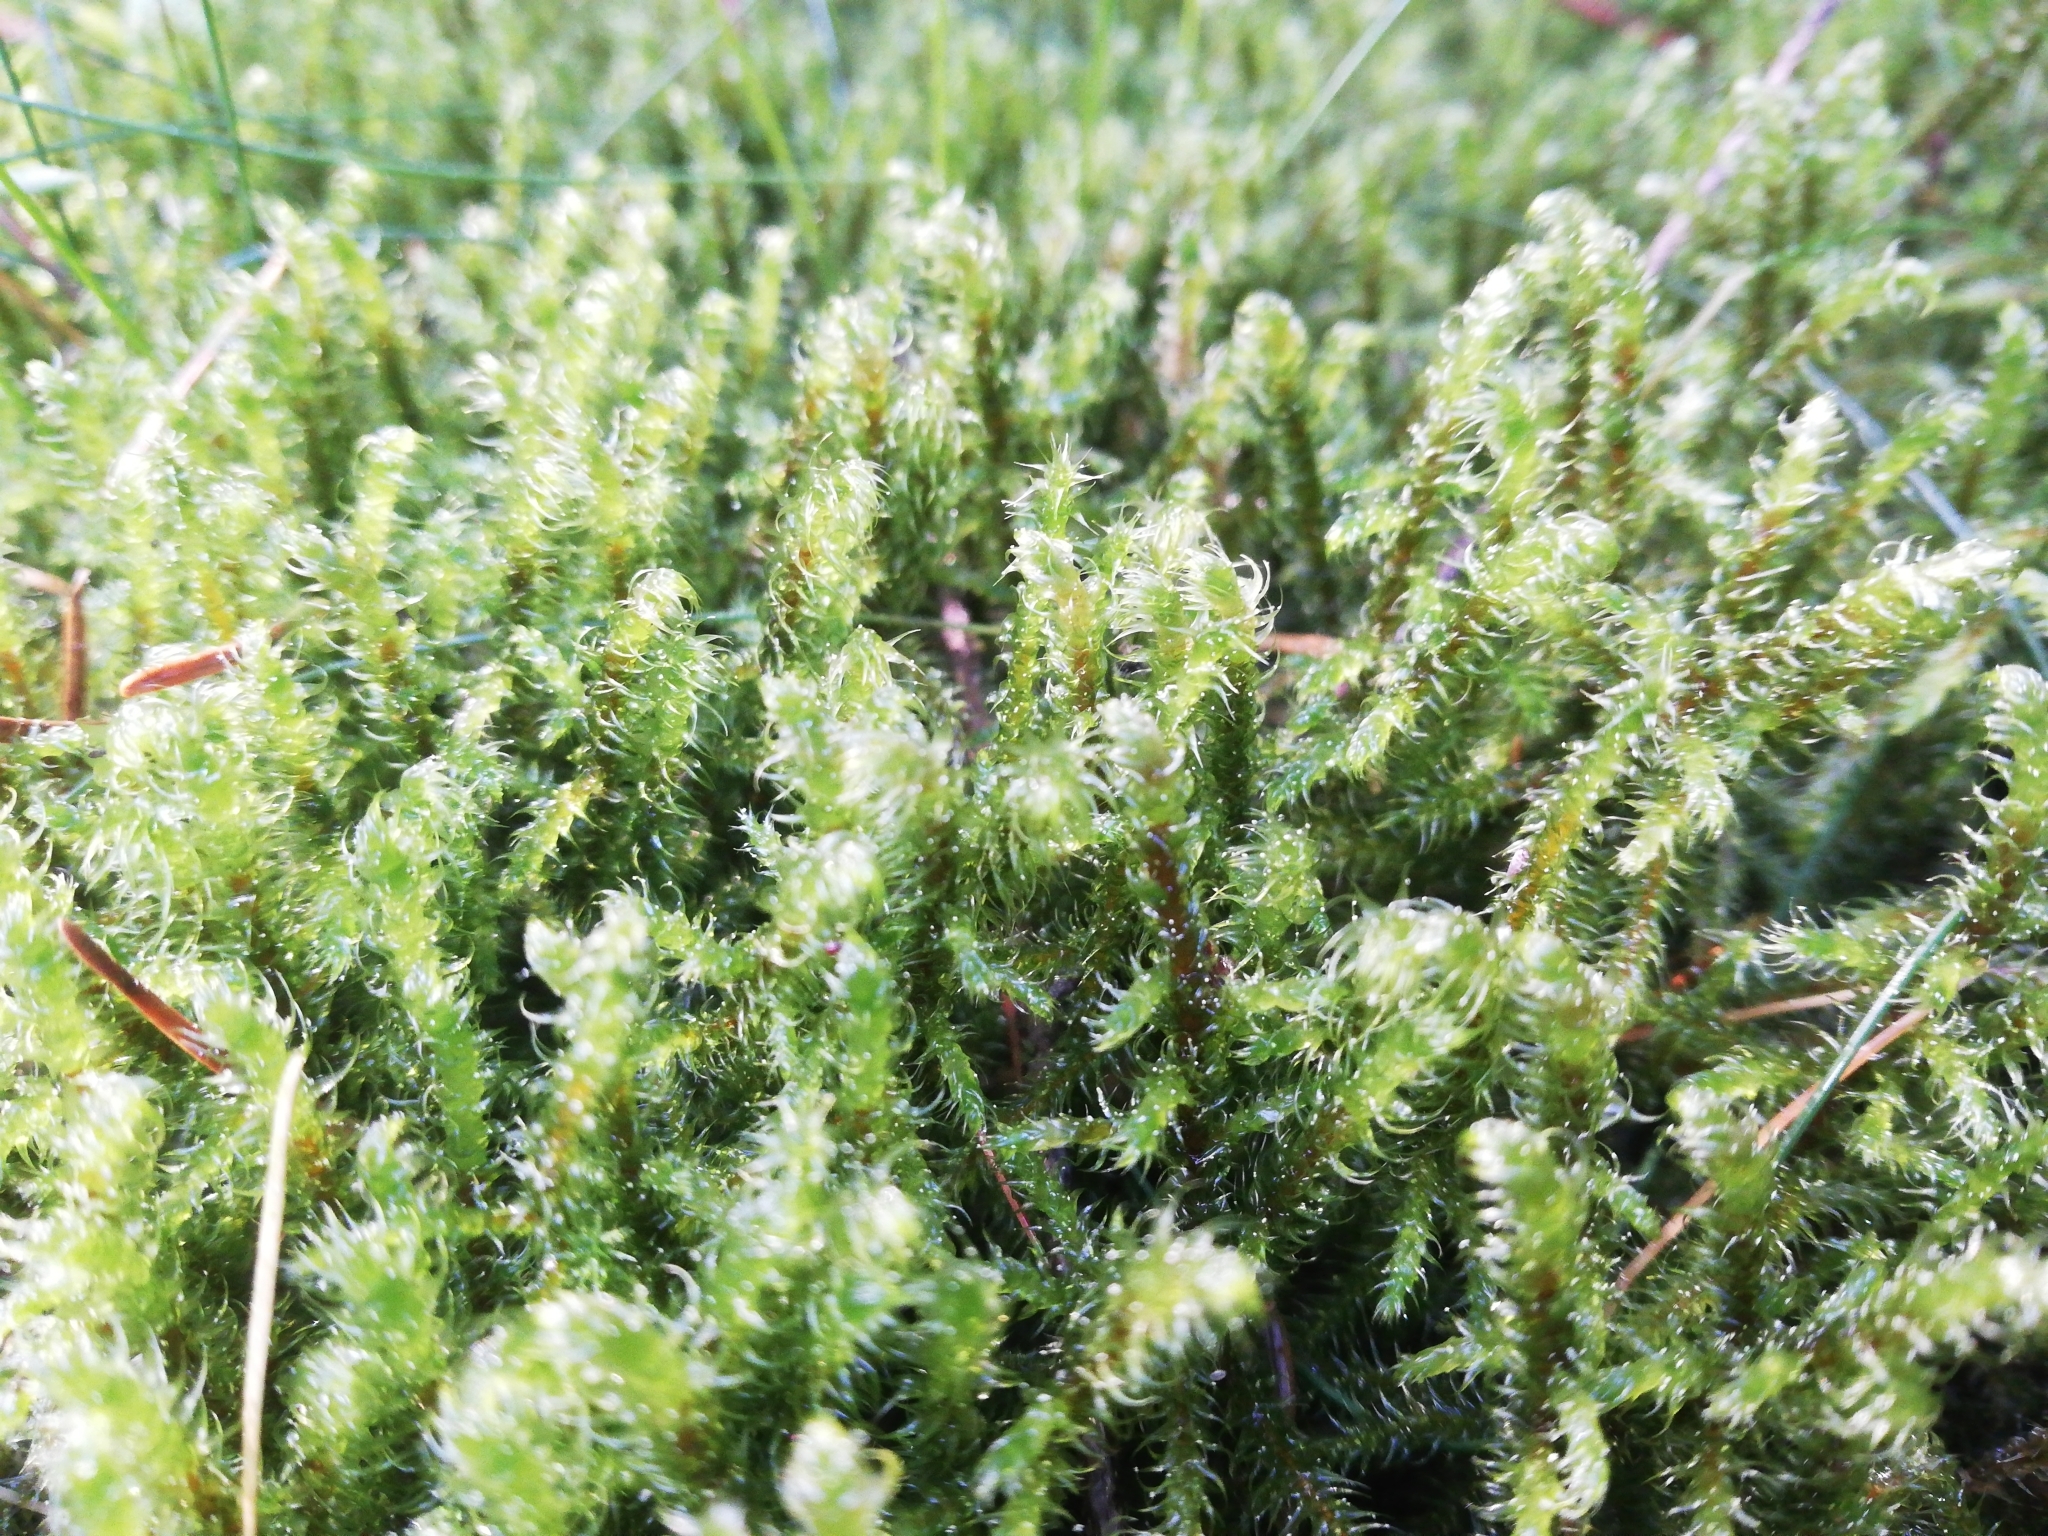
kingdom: Plantae
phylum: Bryophyta
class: Bryopsida
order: Hypnales
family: Hylocomiaceae
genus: Rhytidiadelphus
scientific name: Rhytidiadelphus loreus
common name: Lanky moss
